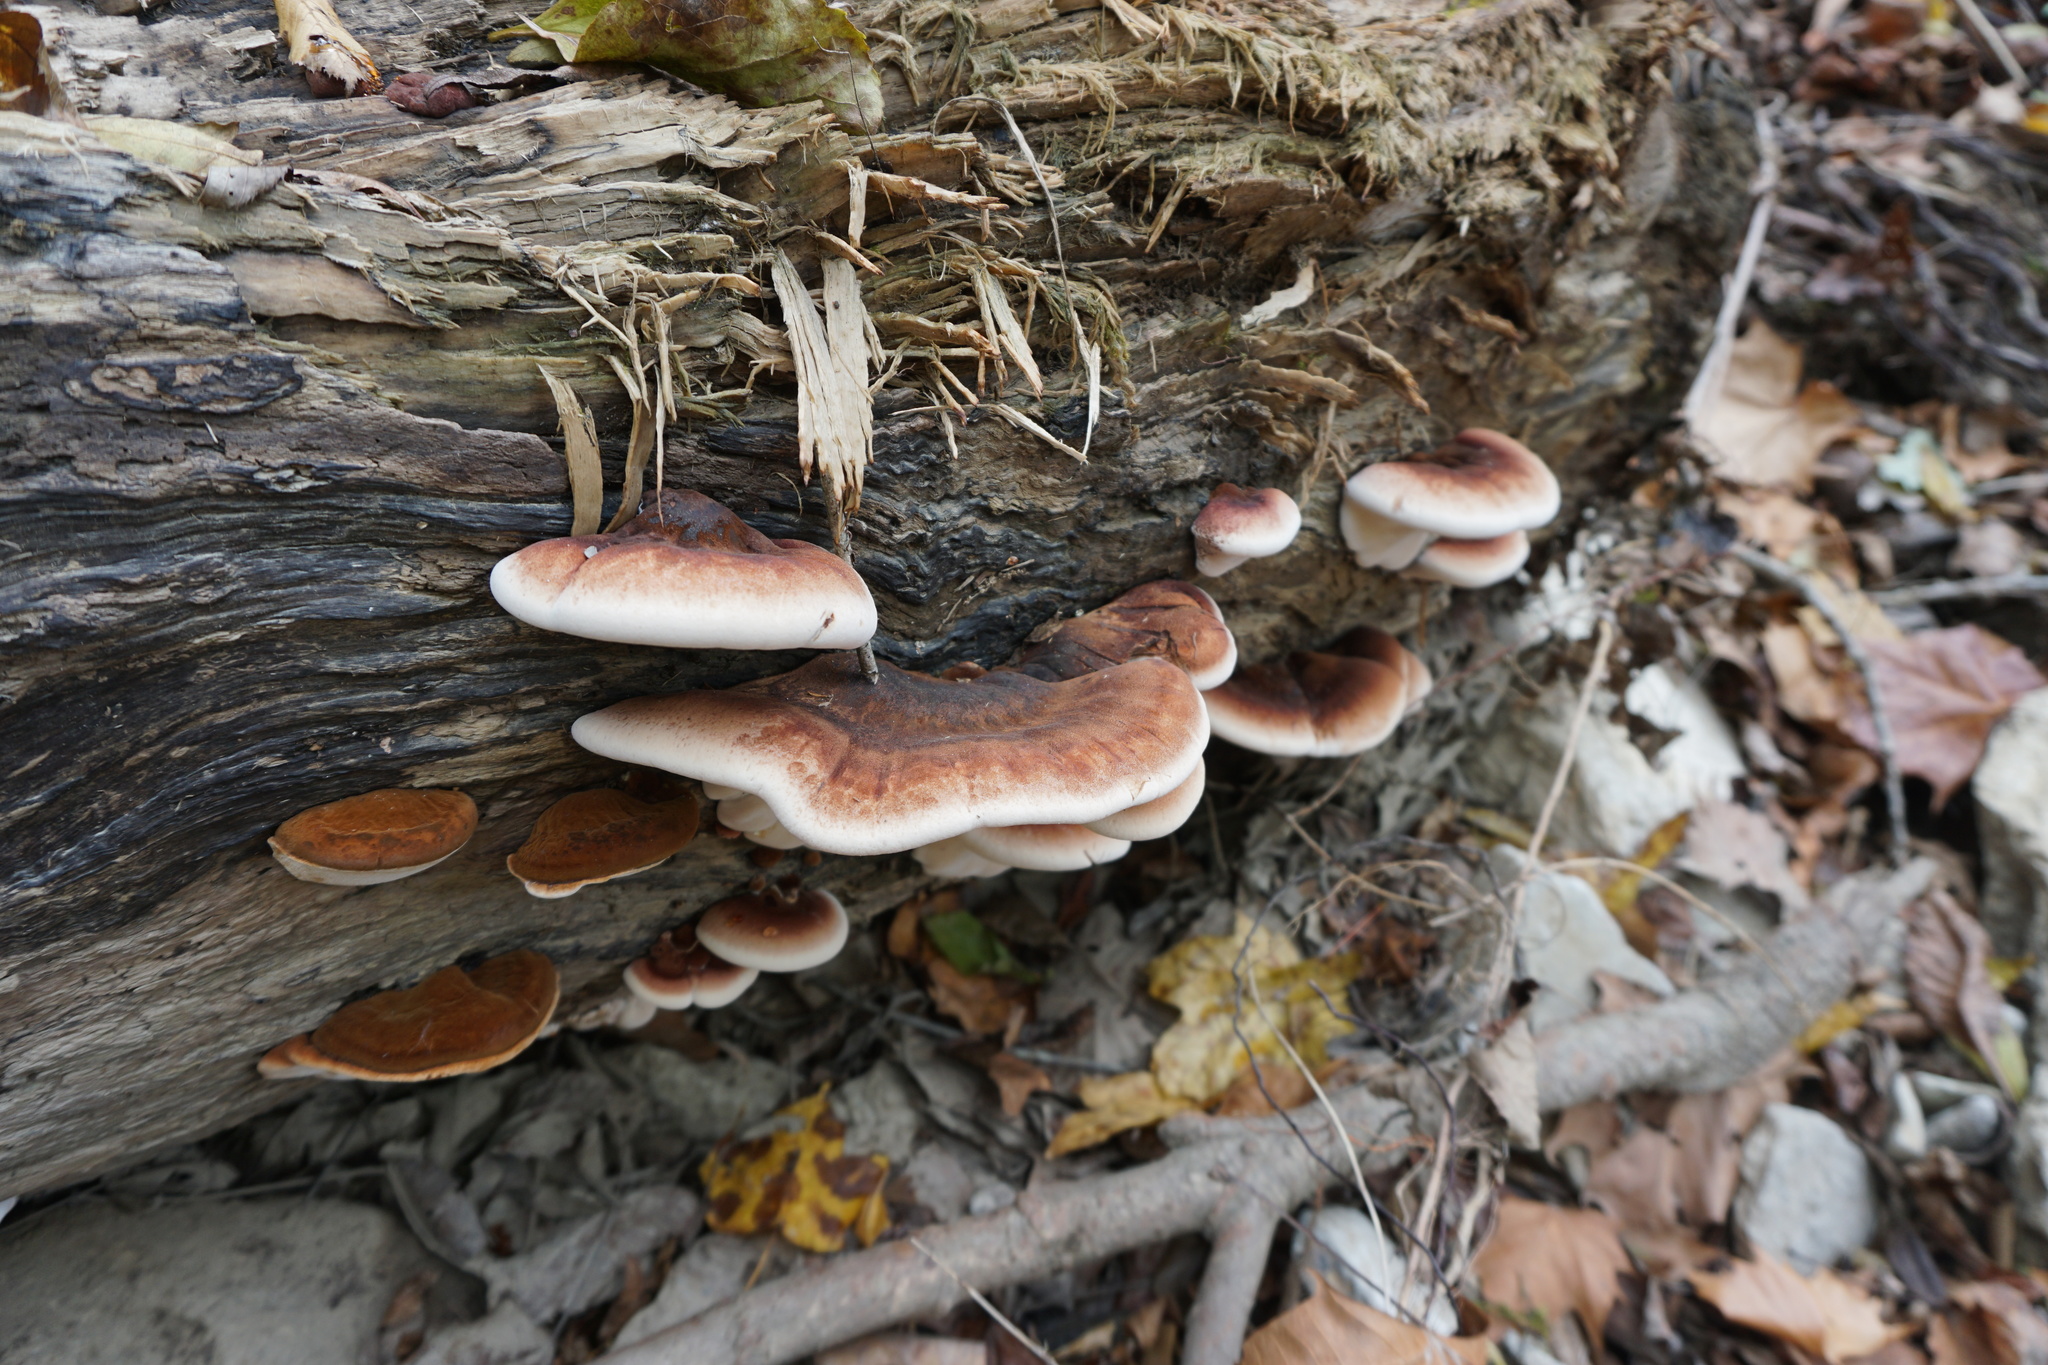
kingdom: Fungi
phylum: Basidiomycota
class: Agaricomycetes
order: Polyporales
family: Ischnodermataceae
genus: Ischnoderma
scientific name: Ischnoderma resinosum
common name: Resinous polypore
